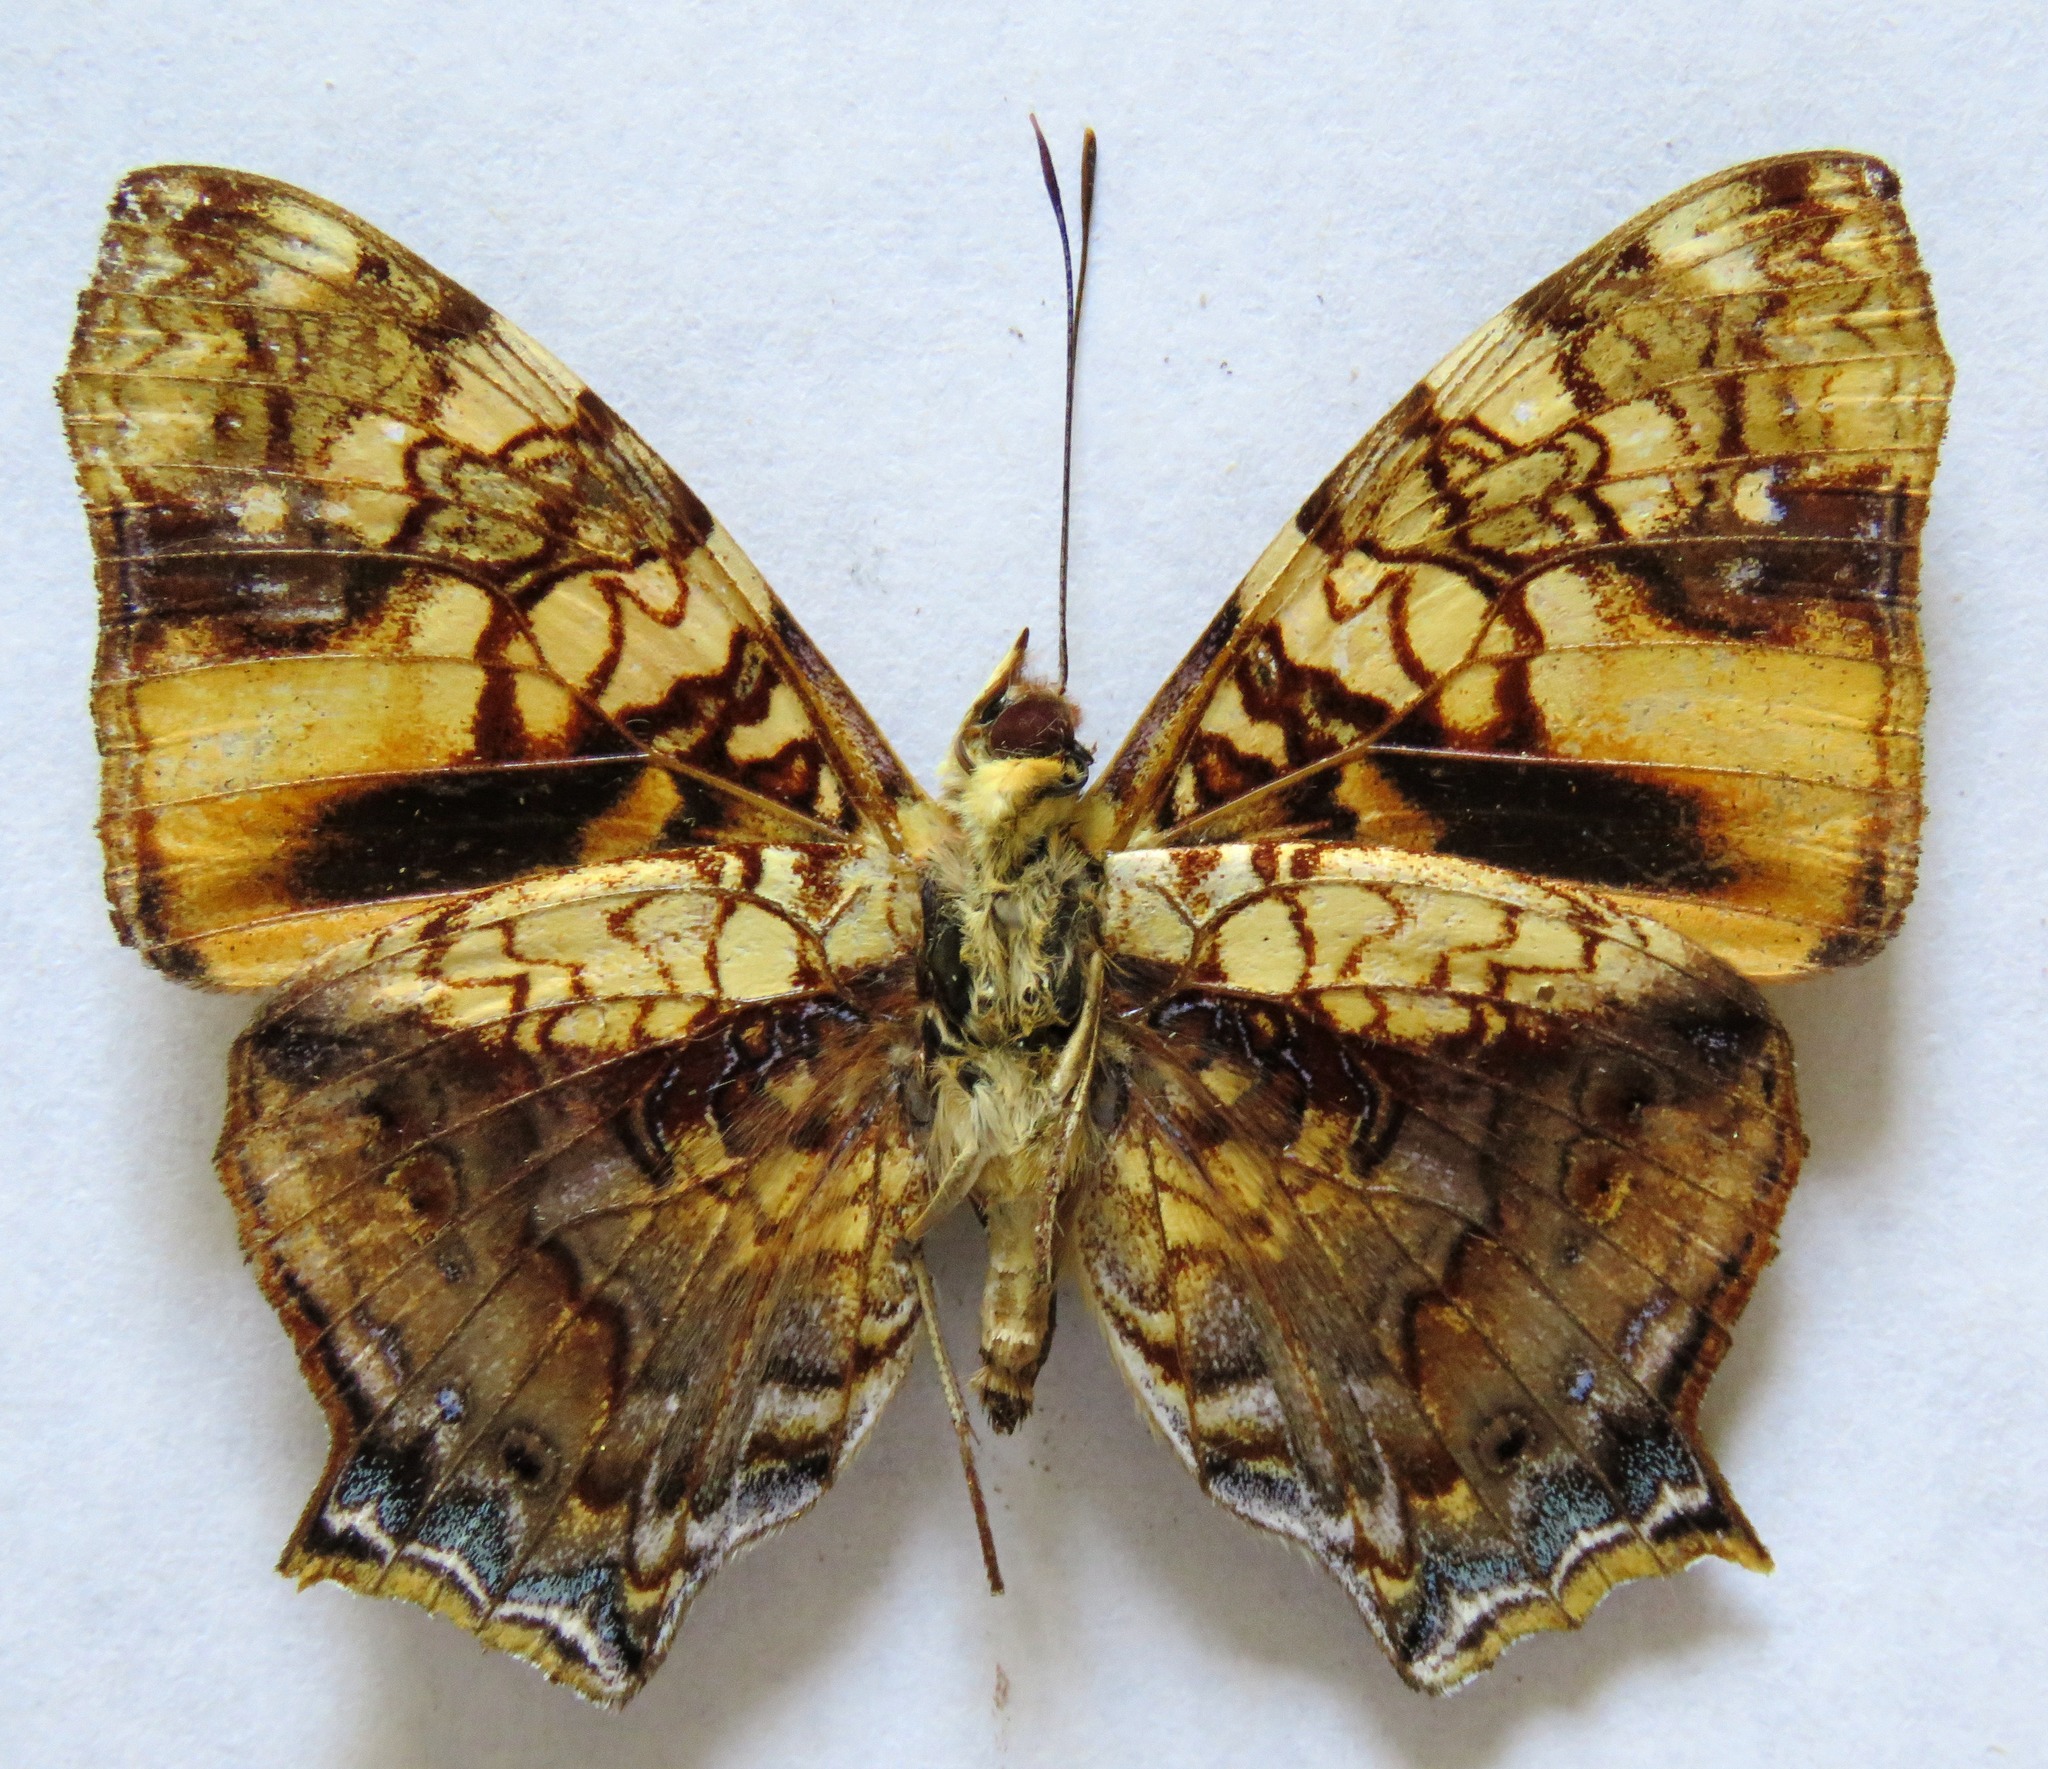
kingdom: Animalia
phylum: Arthropoda
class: Insecta
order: Lepidoptera
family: Nymphalidae
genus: Hypanartia
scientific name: Hypanartia lethe
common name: Orange mapwing
